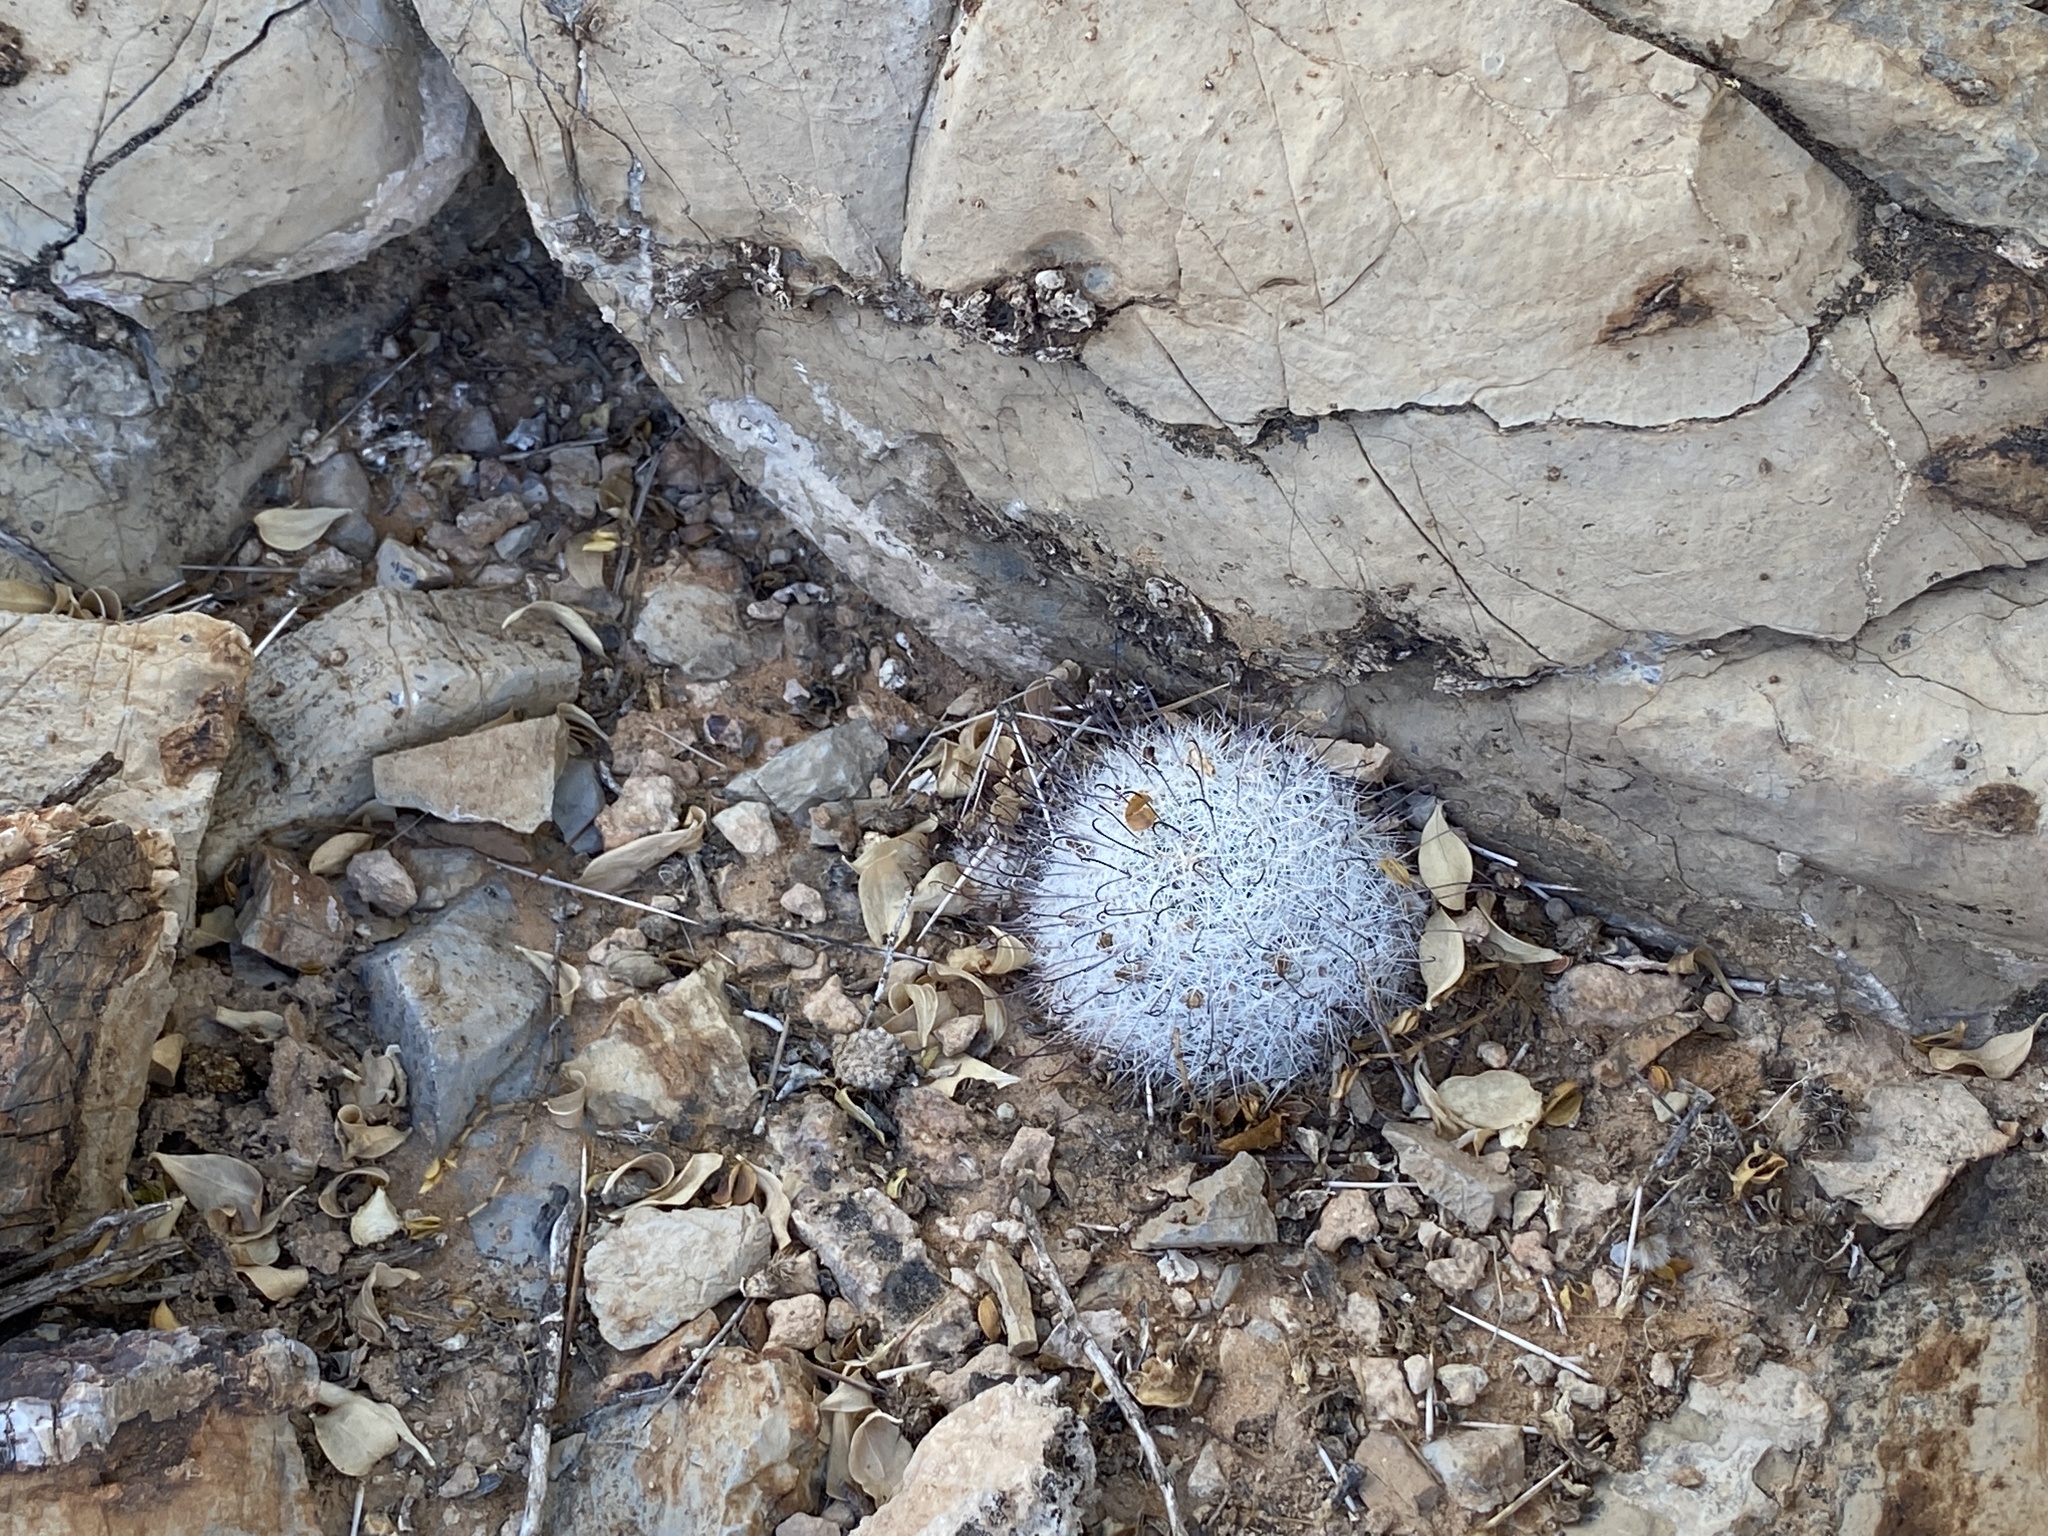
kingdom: Plantae
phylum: Tracheophyta
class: Magnoliopsida
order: Caryophyllales
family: Cactaceae
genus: Cochemiea
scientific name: Cochemiea grahamii
